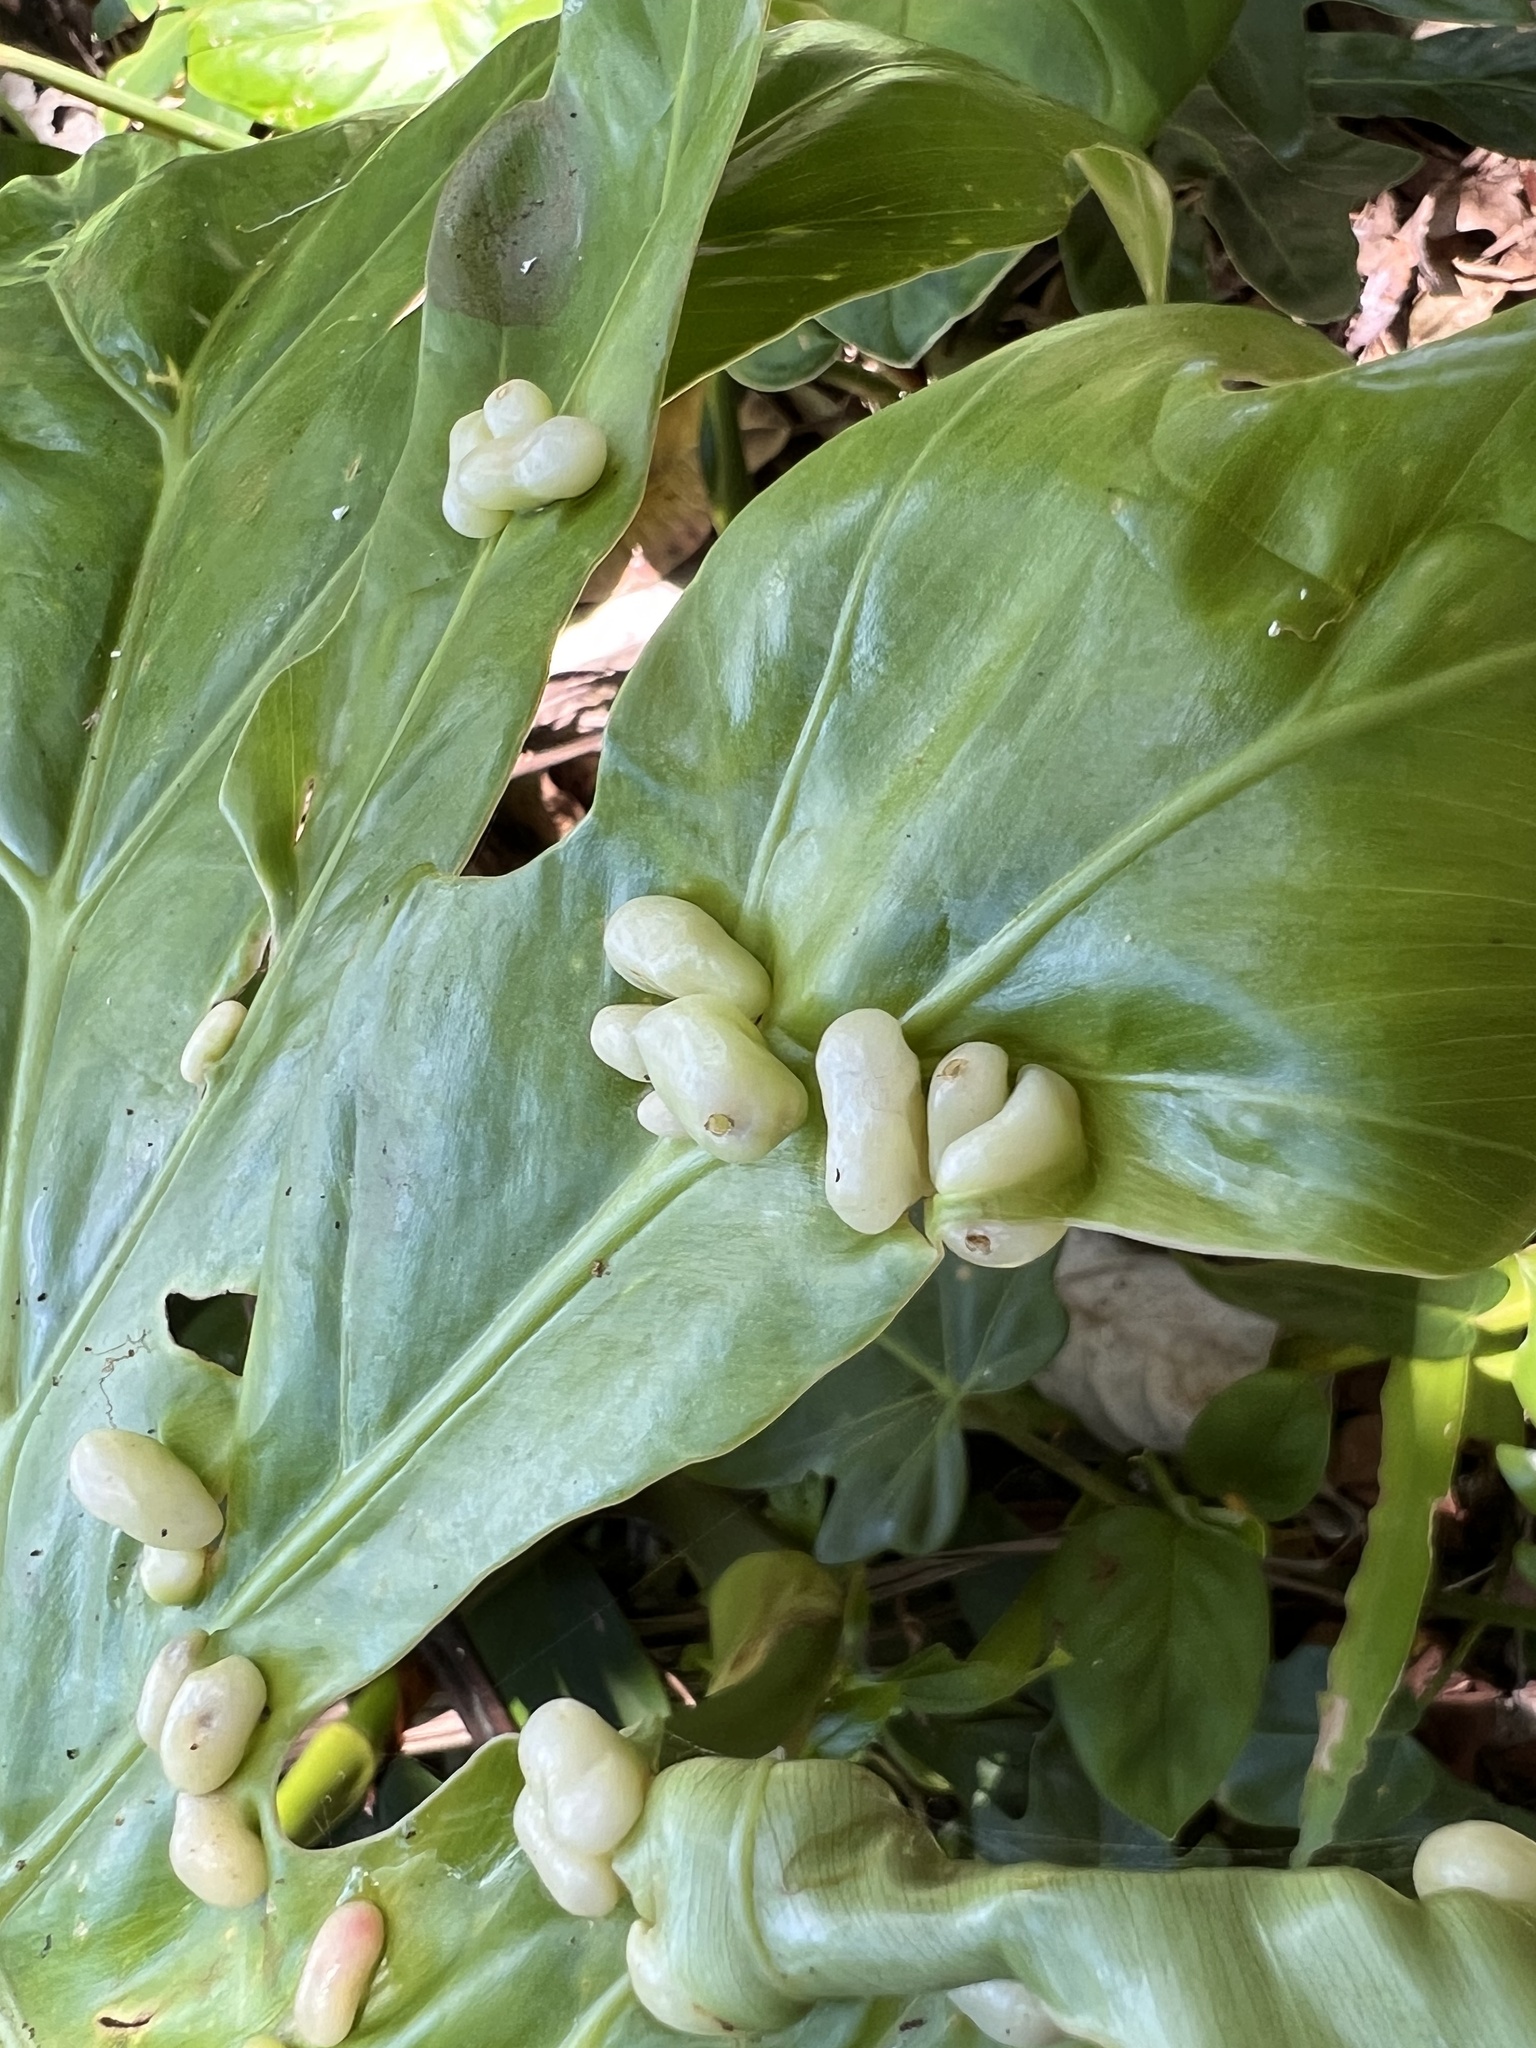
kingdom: Animalia
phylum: Arthropoda
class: Insecta
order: Hymenoptera
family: Braconidae
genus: Monitoriella
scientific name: Monitoriella elongata
